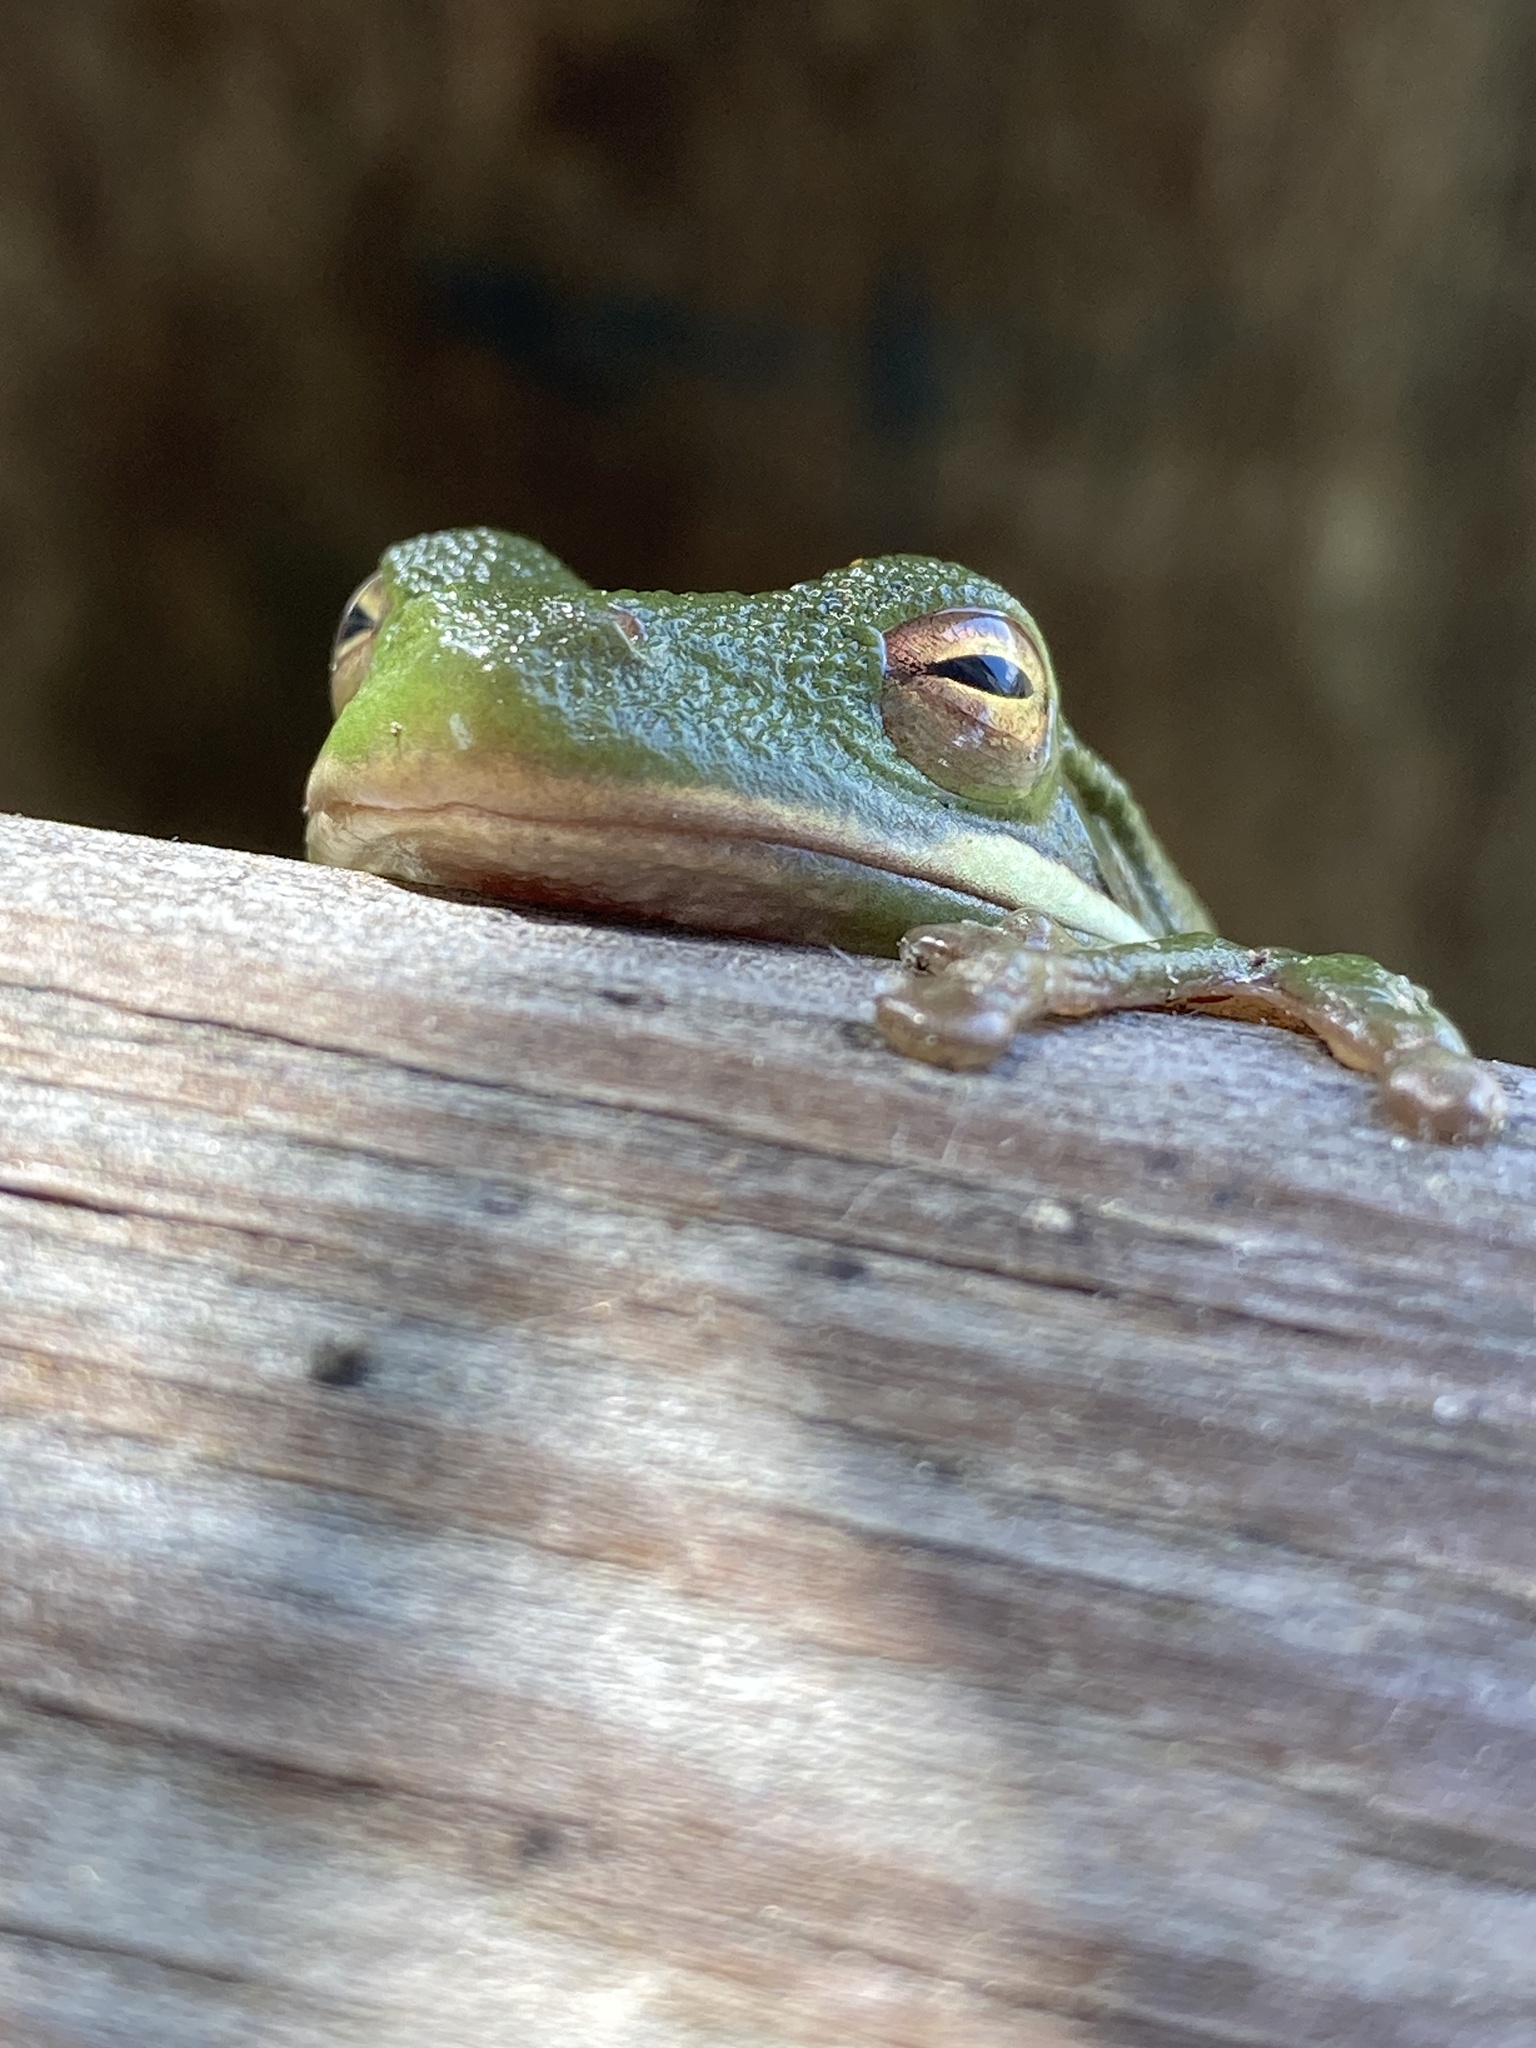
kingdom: Animalia
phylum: Chordata
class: Amphibia
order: Anura
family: Hylidae
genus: Dryophytes
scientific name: Dryophytes cinereus
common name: Green treefrog
